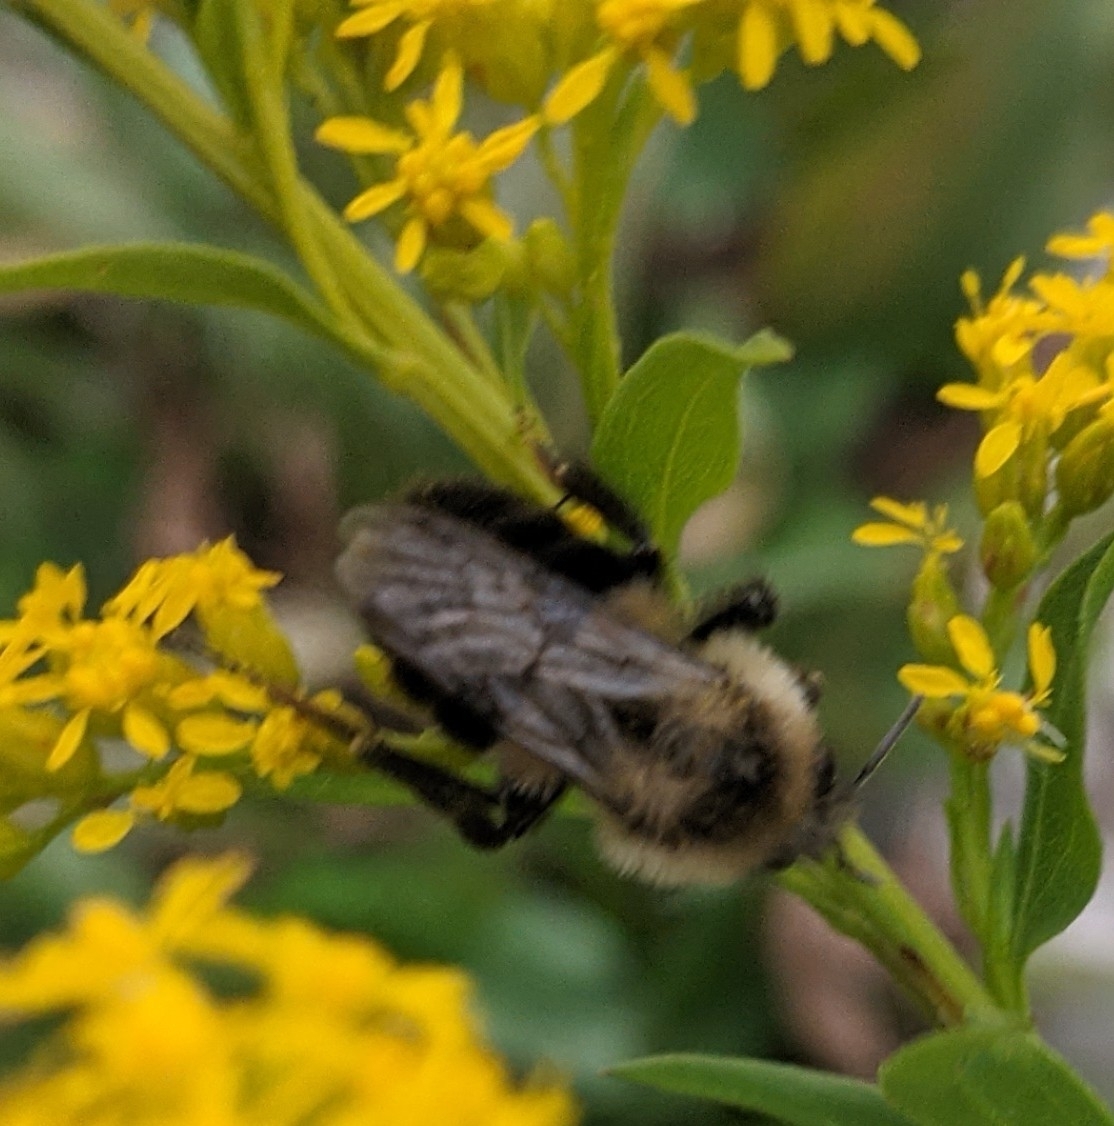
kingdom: Animalia
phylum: Arthropoda
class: Insecta
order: Hymenoptera
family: Apidae
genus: Bombus
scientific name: Bombus impatiens
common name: Common eastern bumble bee
